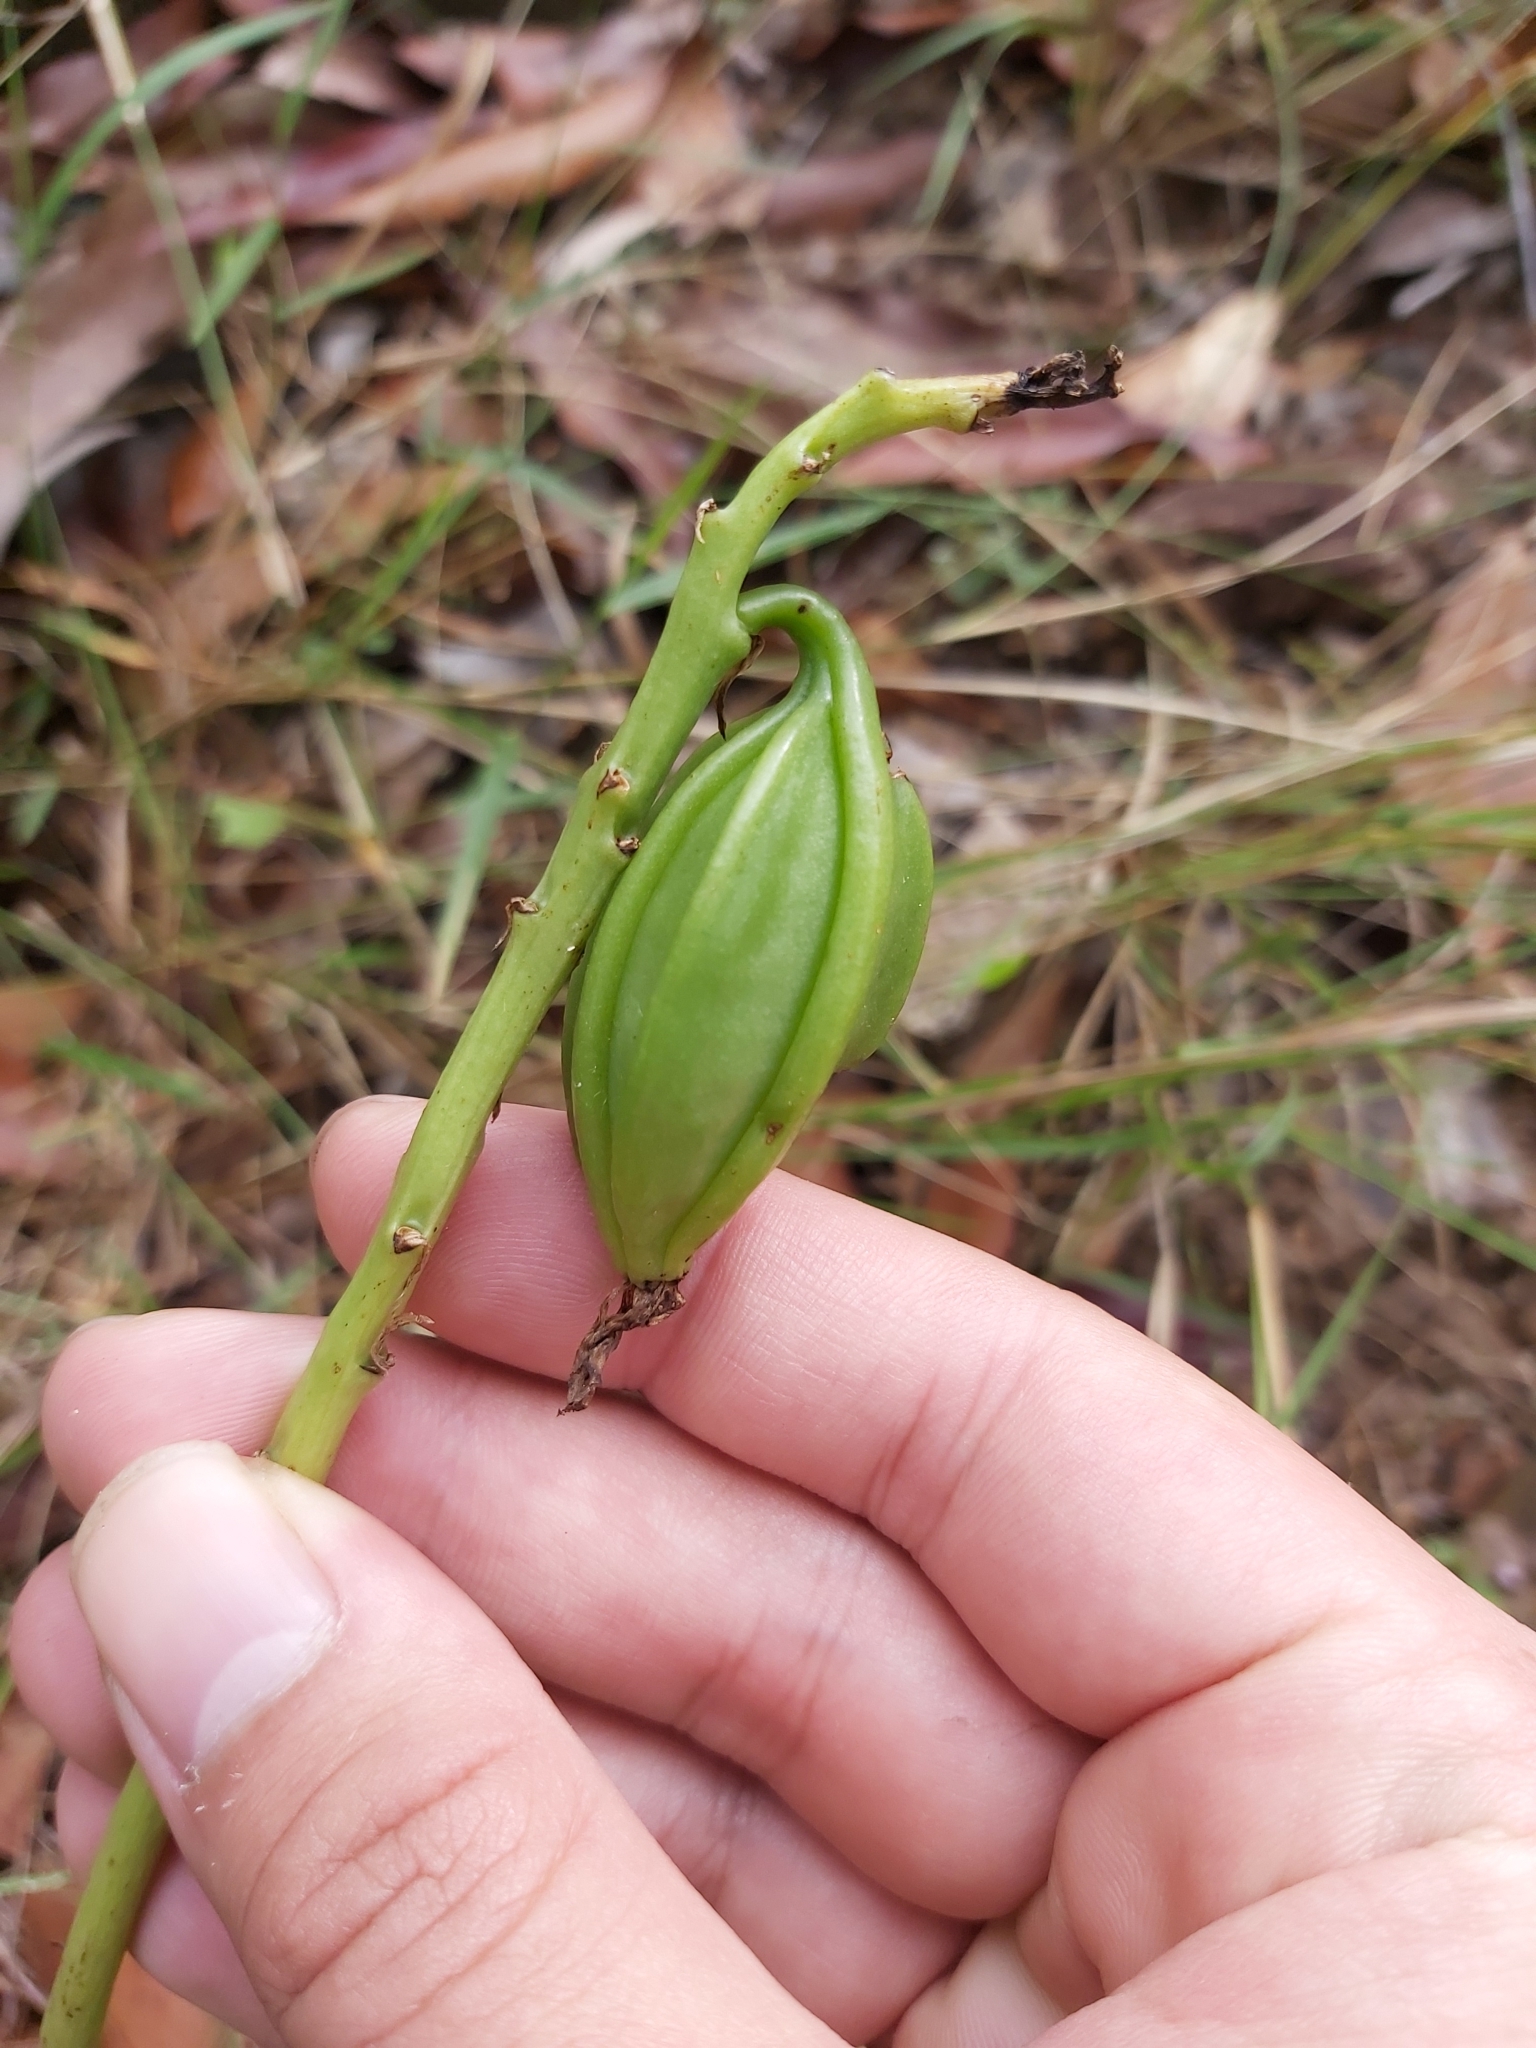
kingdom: Plantae
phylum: Tracheophyta
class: Liliopsida
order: Asparagales
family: Orchidaceae
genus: Eulophia
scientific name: Eulophia cernua
